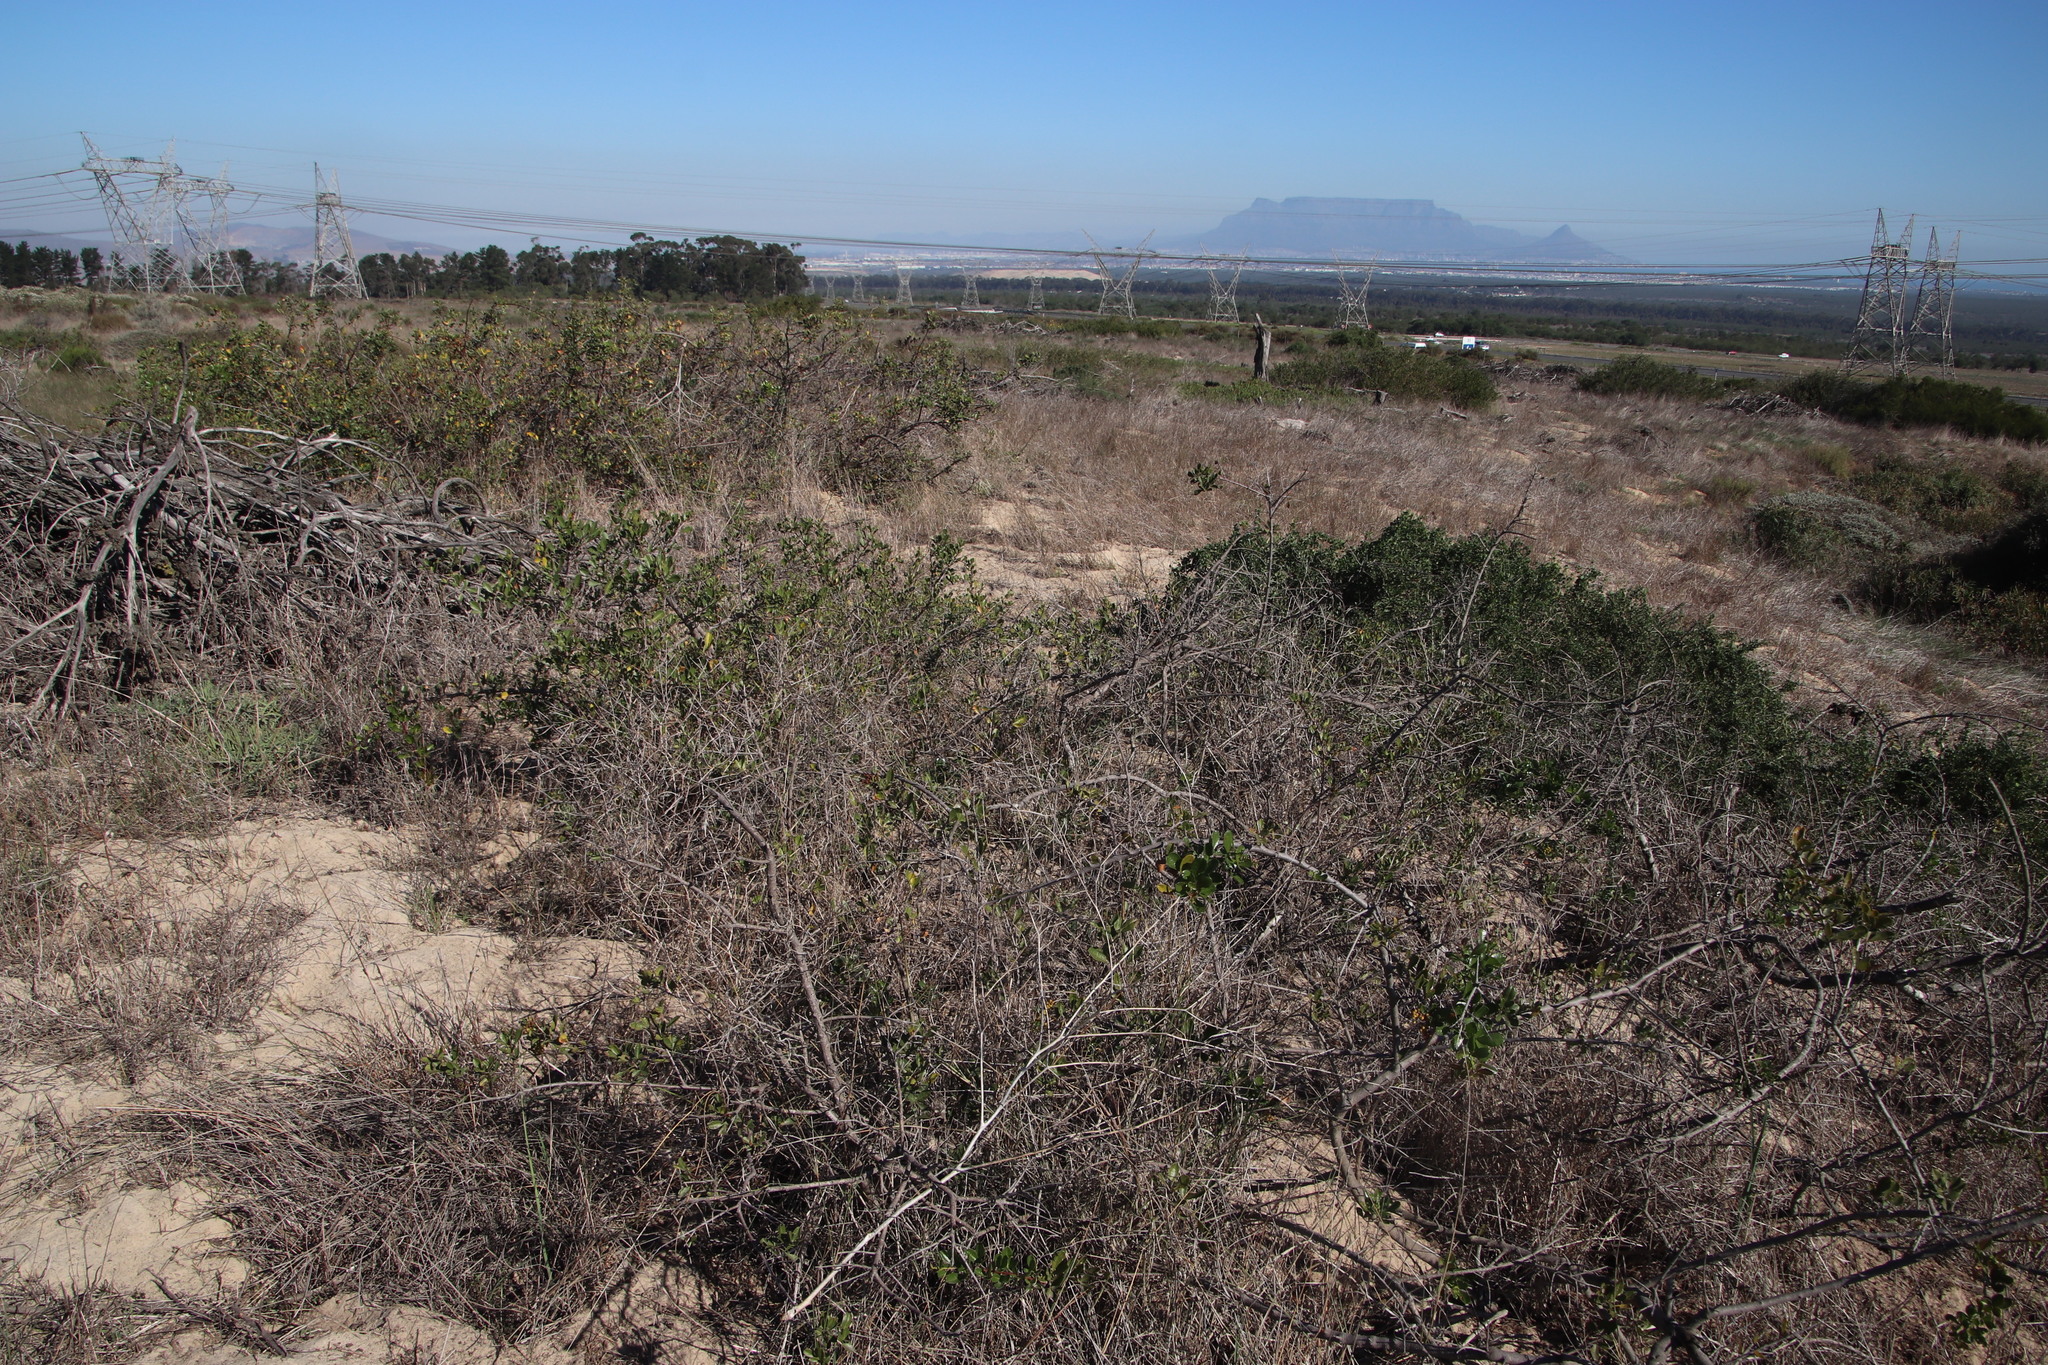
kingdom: Plantae
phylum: Tracheophyta
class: Magnoliopsida
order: Sapindales
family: Anacardiaceae
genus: Searsia
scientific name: Searsia lucida
